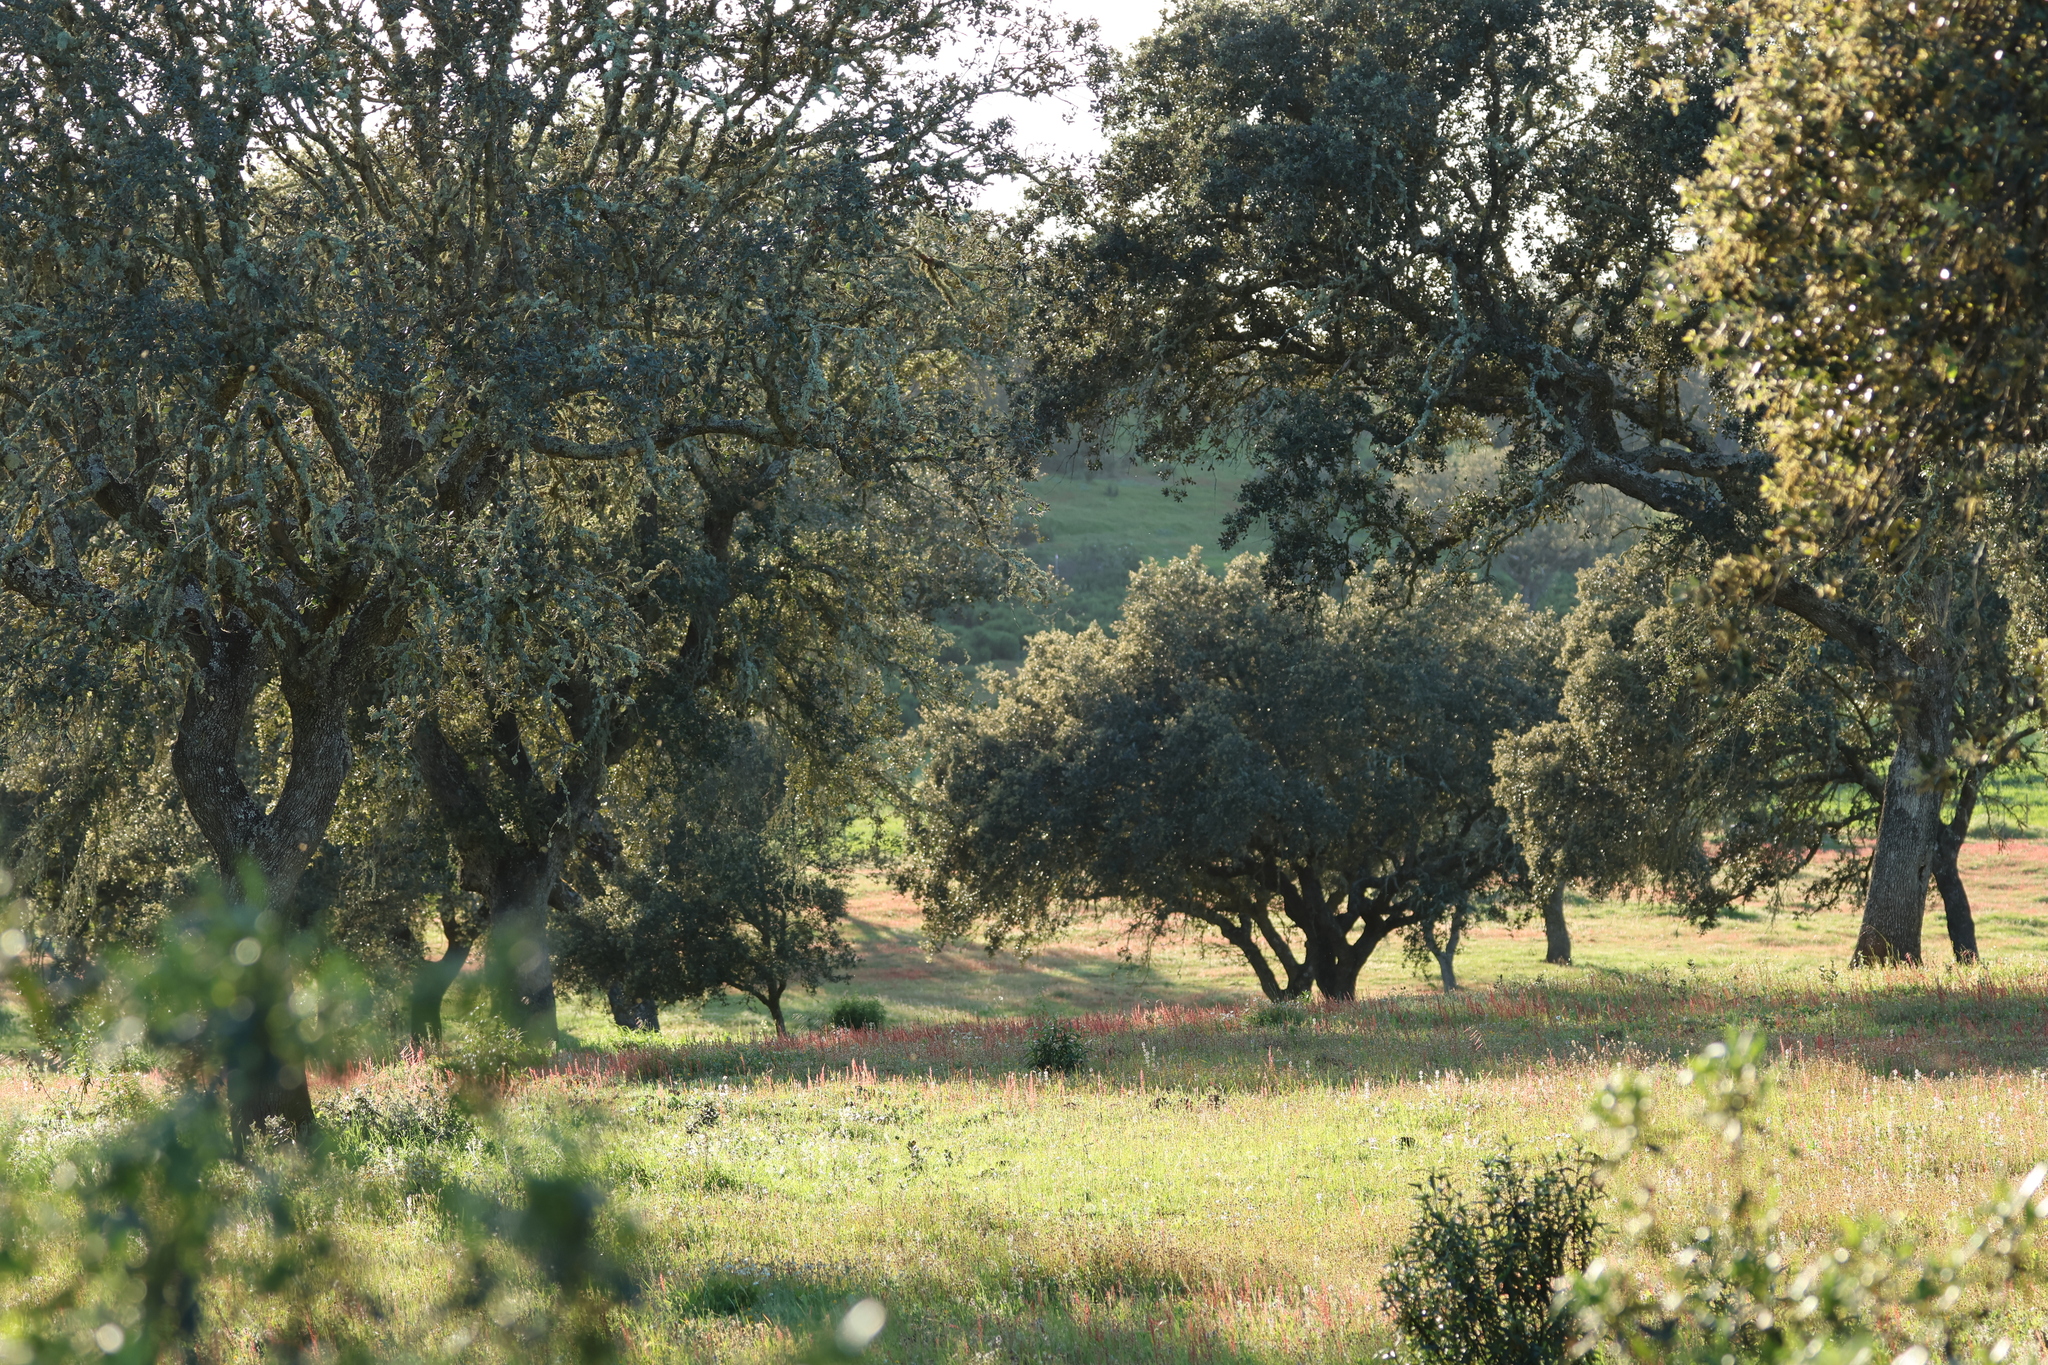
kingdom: Plantae
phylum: Tracheophyta
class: Magnoliopsida
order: Fagales
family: Fagaceae
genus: Quercus
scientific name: Quercus rotundifolia
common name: Holm oak
